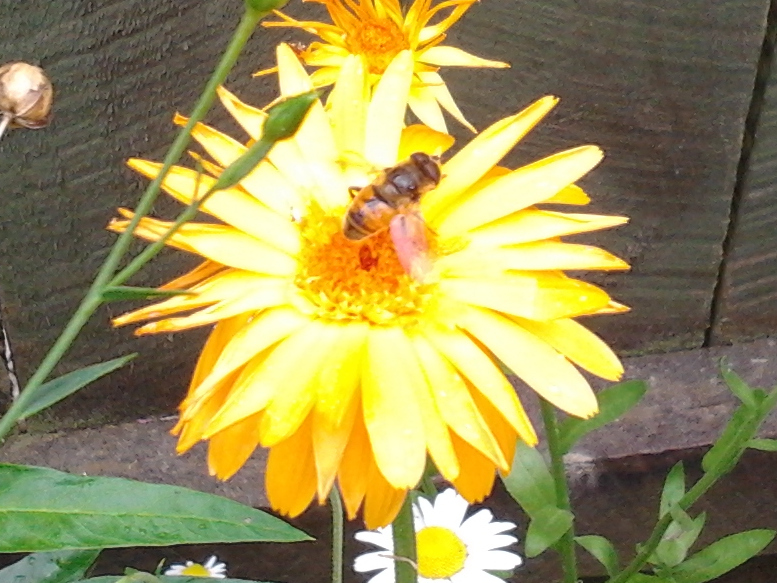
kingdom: Animalia
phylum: Arthropoda
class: Insecta
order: Diptera
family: Syrphidae
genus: Eristalis
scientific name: Eristalis tenax
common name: Drone fly
